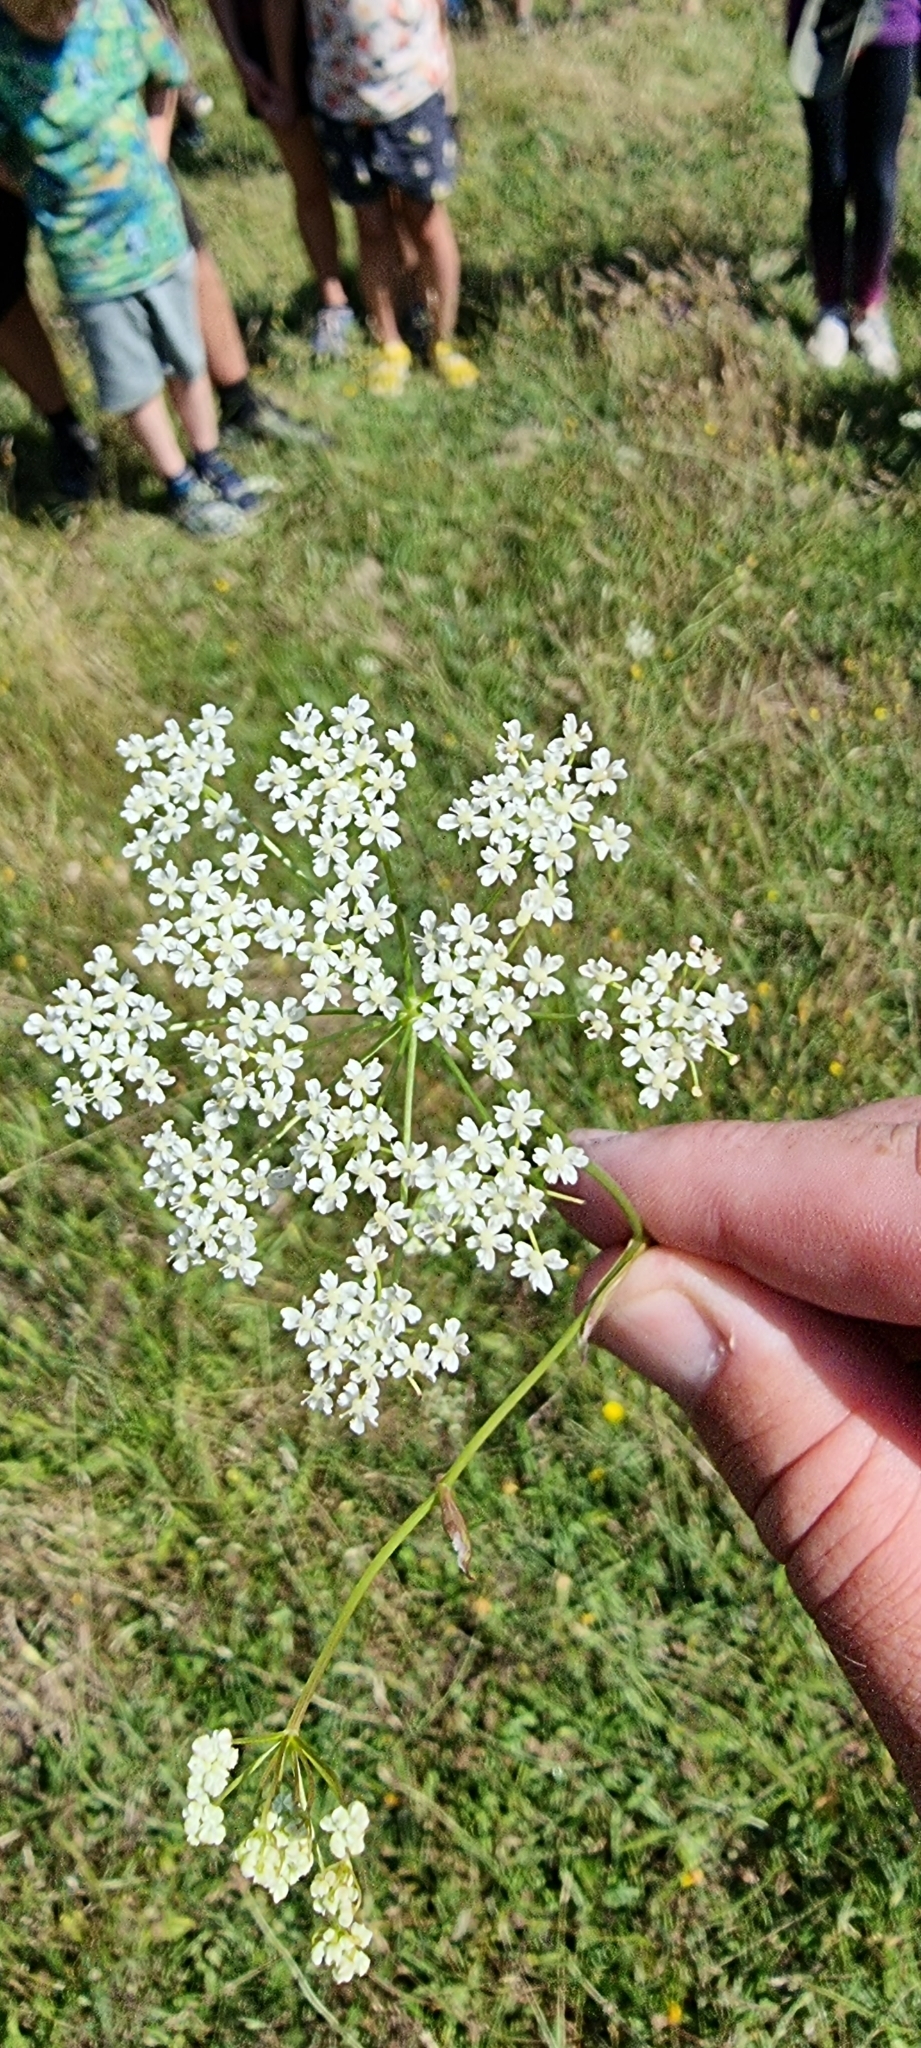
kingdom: Plantae
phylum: Tracheophyta
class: Magnoliopsida
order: Apiales
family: Apiaceae
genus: Pimpinella
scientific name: Pimpinella saxifraga
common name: Burnet-saxifrage
